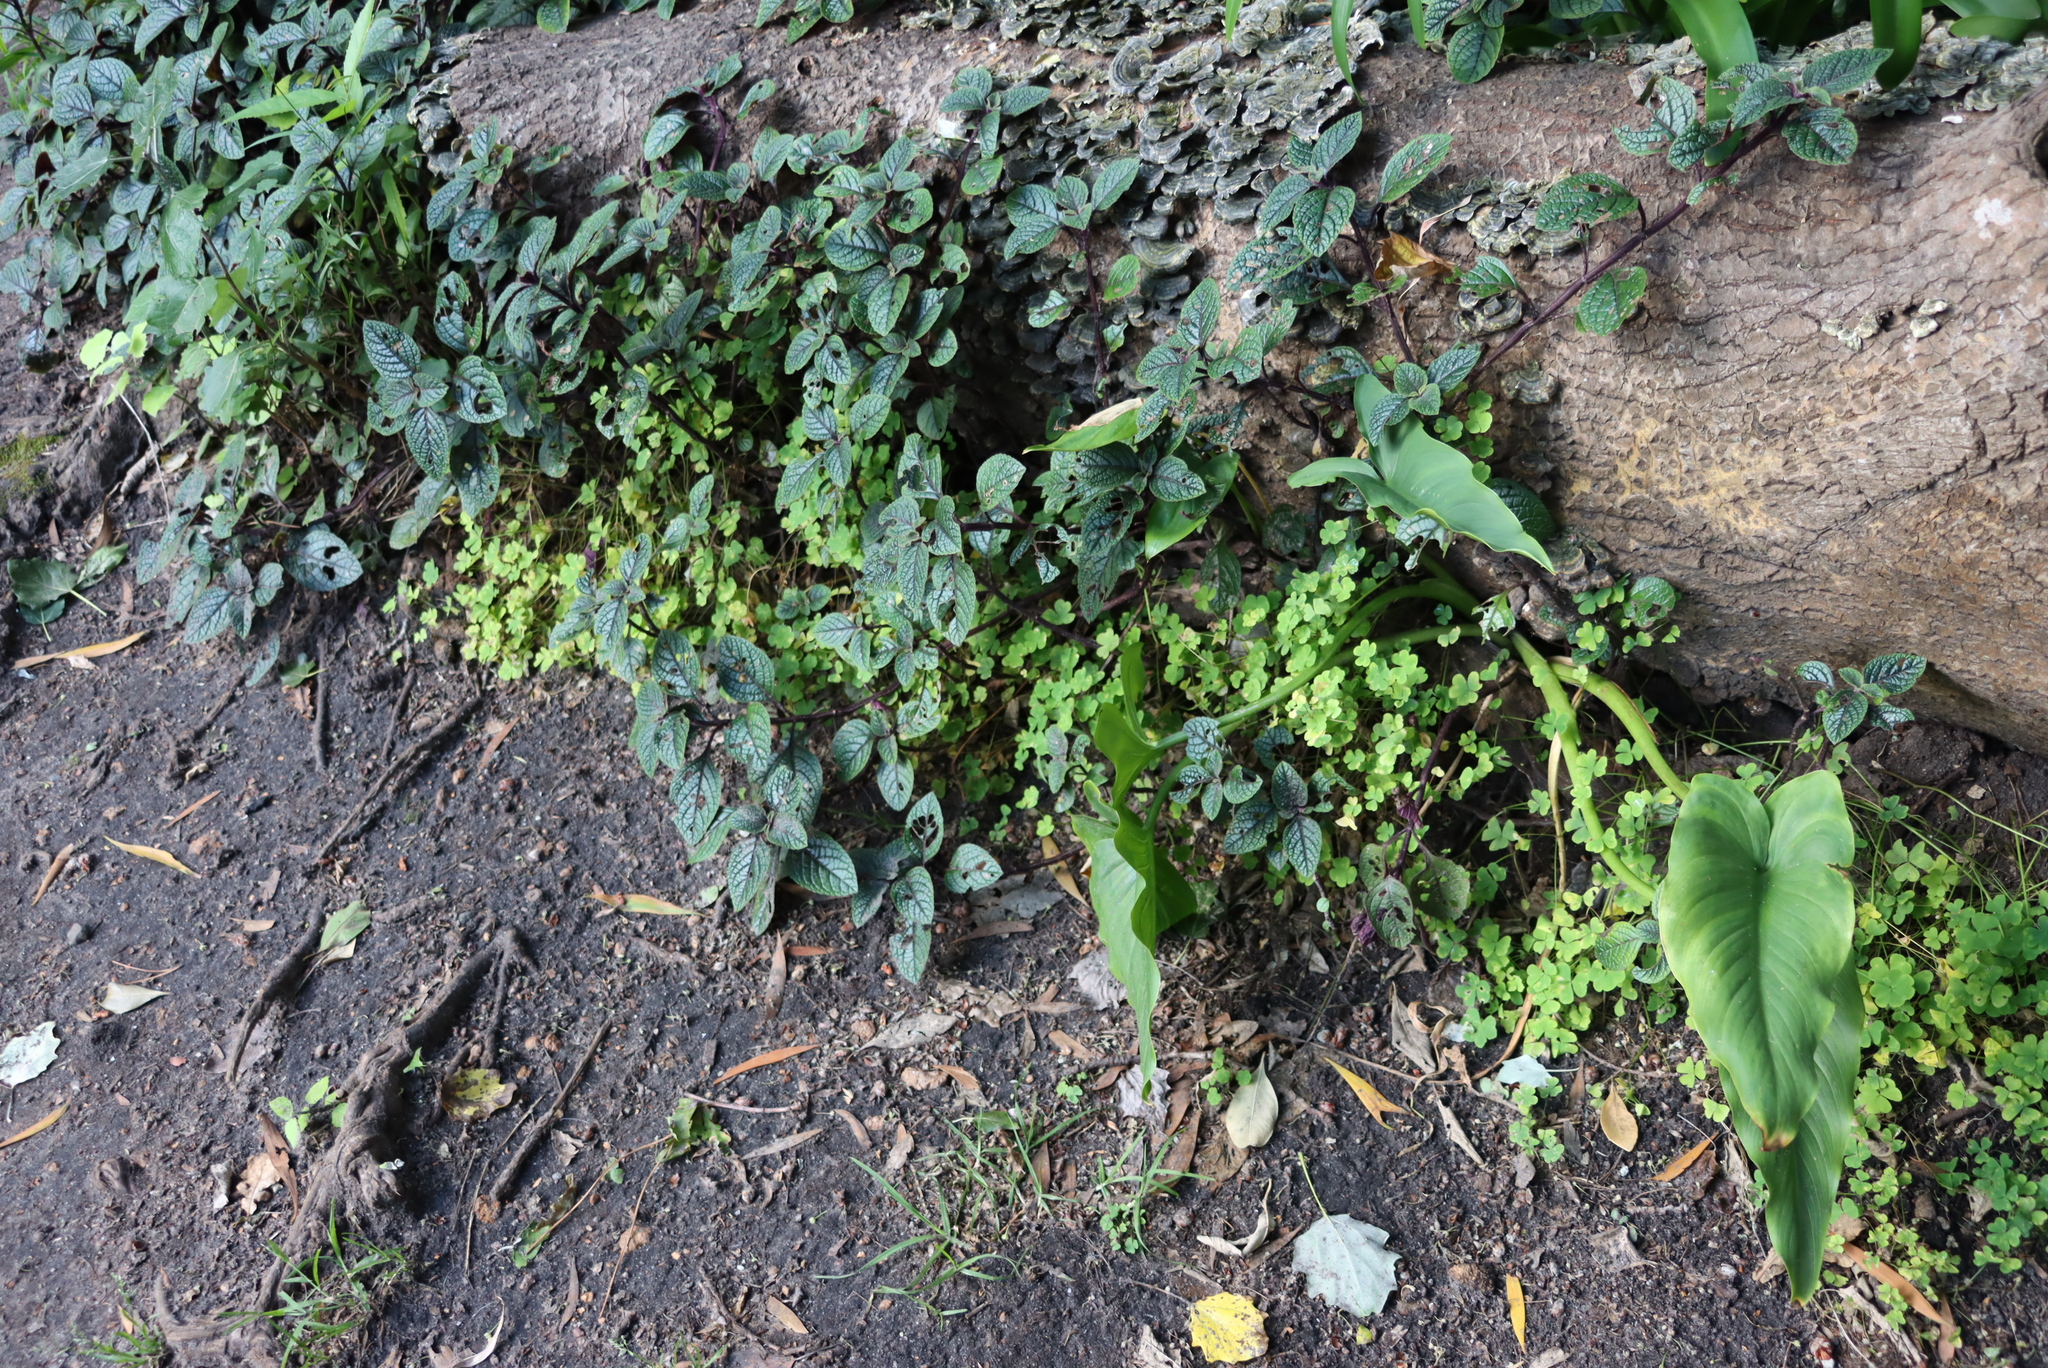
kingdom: Plantae
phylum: Tracheophyta
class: Magnoliopsida
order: Lamiales
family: Lamiaceae
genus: Plectranthus
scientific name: Plectranthus ciliatus
